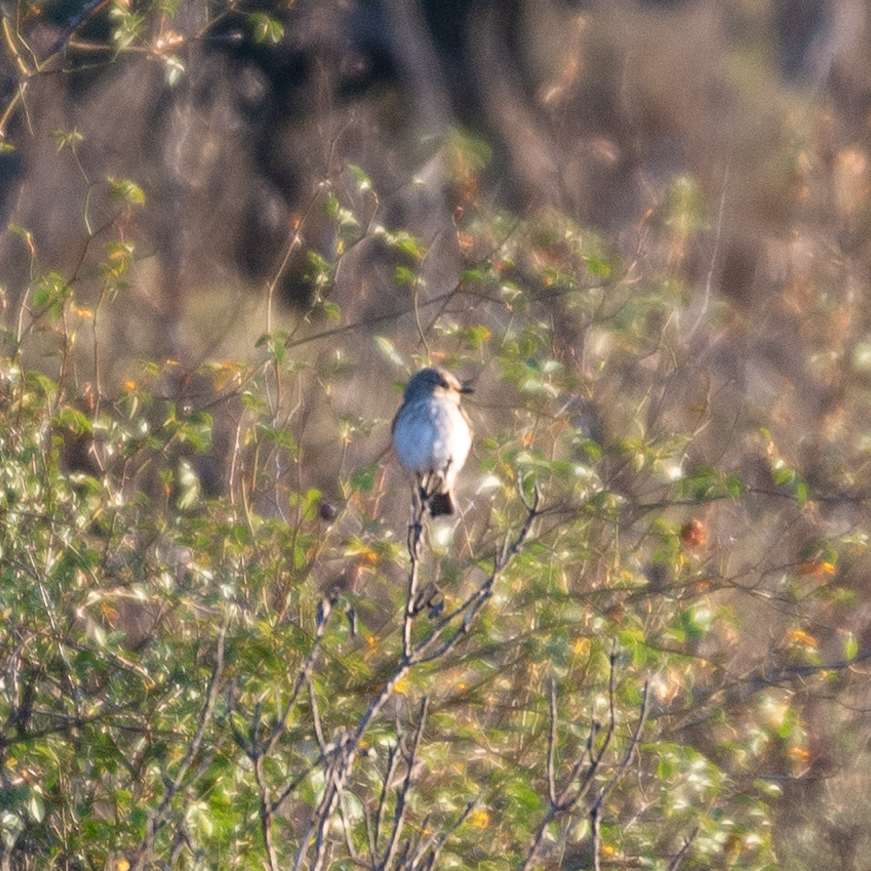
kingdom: Animalia
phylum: Chordata
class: Aves
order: Passeriformes
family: Muscicapidae
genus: Muscicapa
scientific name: Muscicapa striata
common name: Spotted flycatcher
